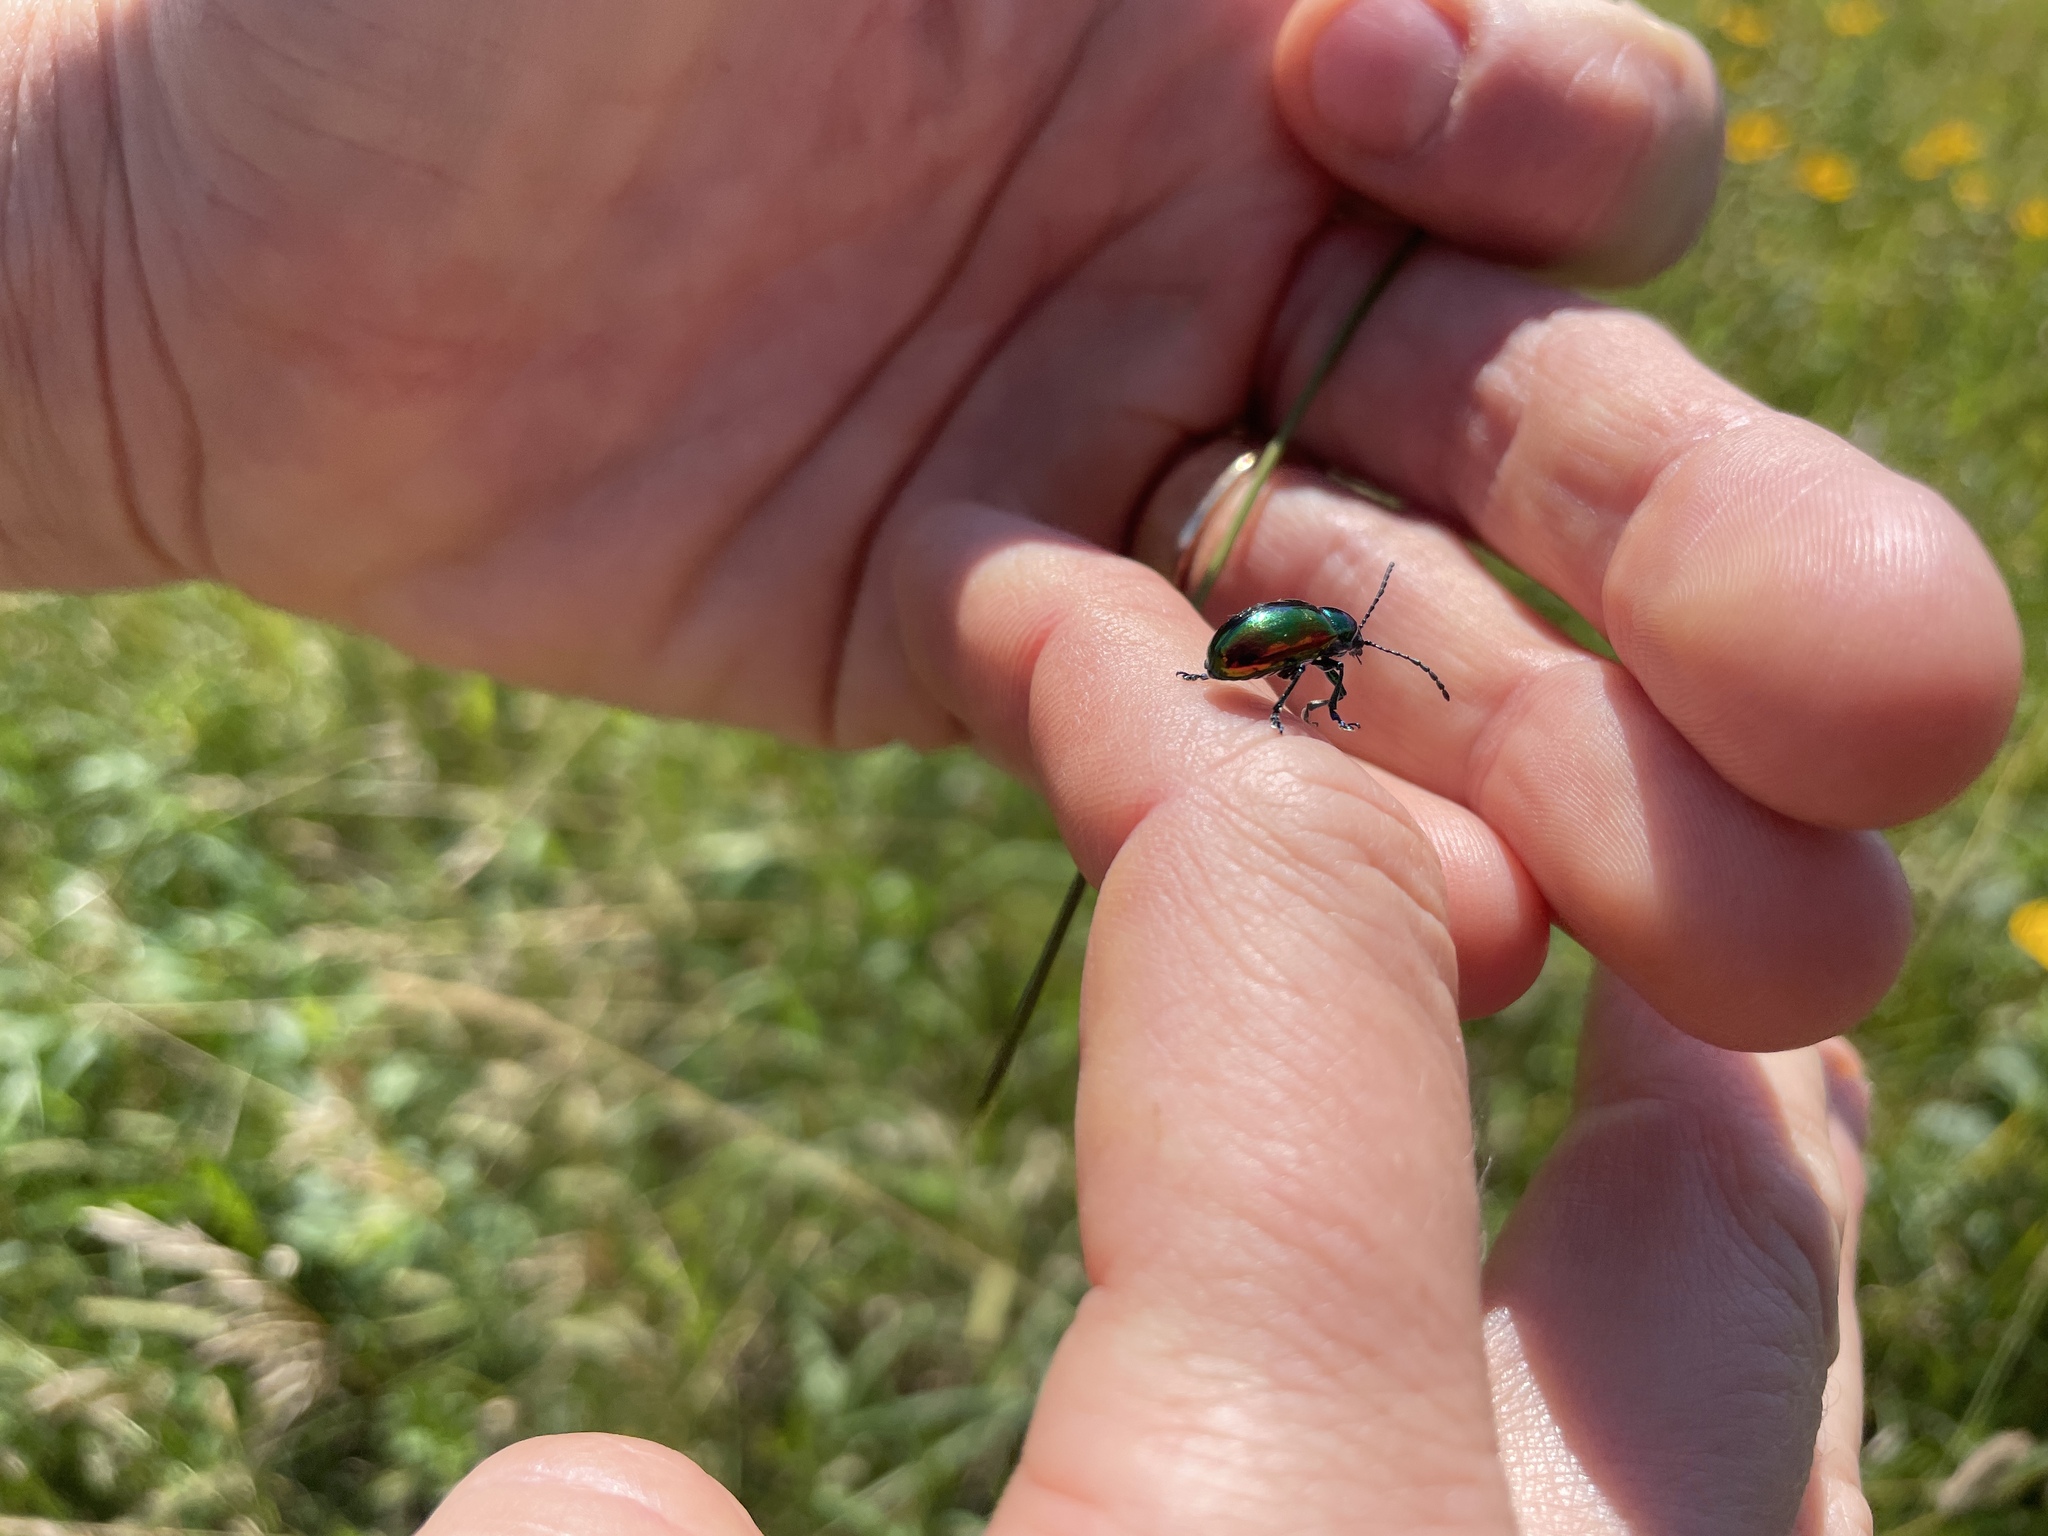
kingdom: Animalia
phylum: Arthropoda
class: Insecta
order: Coleoptera
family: Chrysomelidae
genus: Chrysochus
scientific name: Chrysochus auratus
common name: Dogbane leaf beetle
